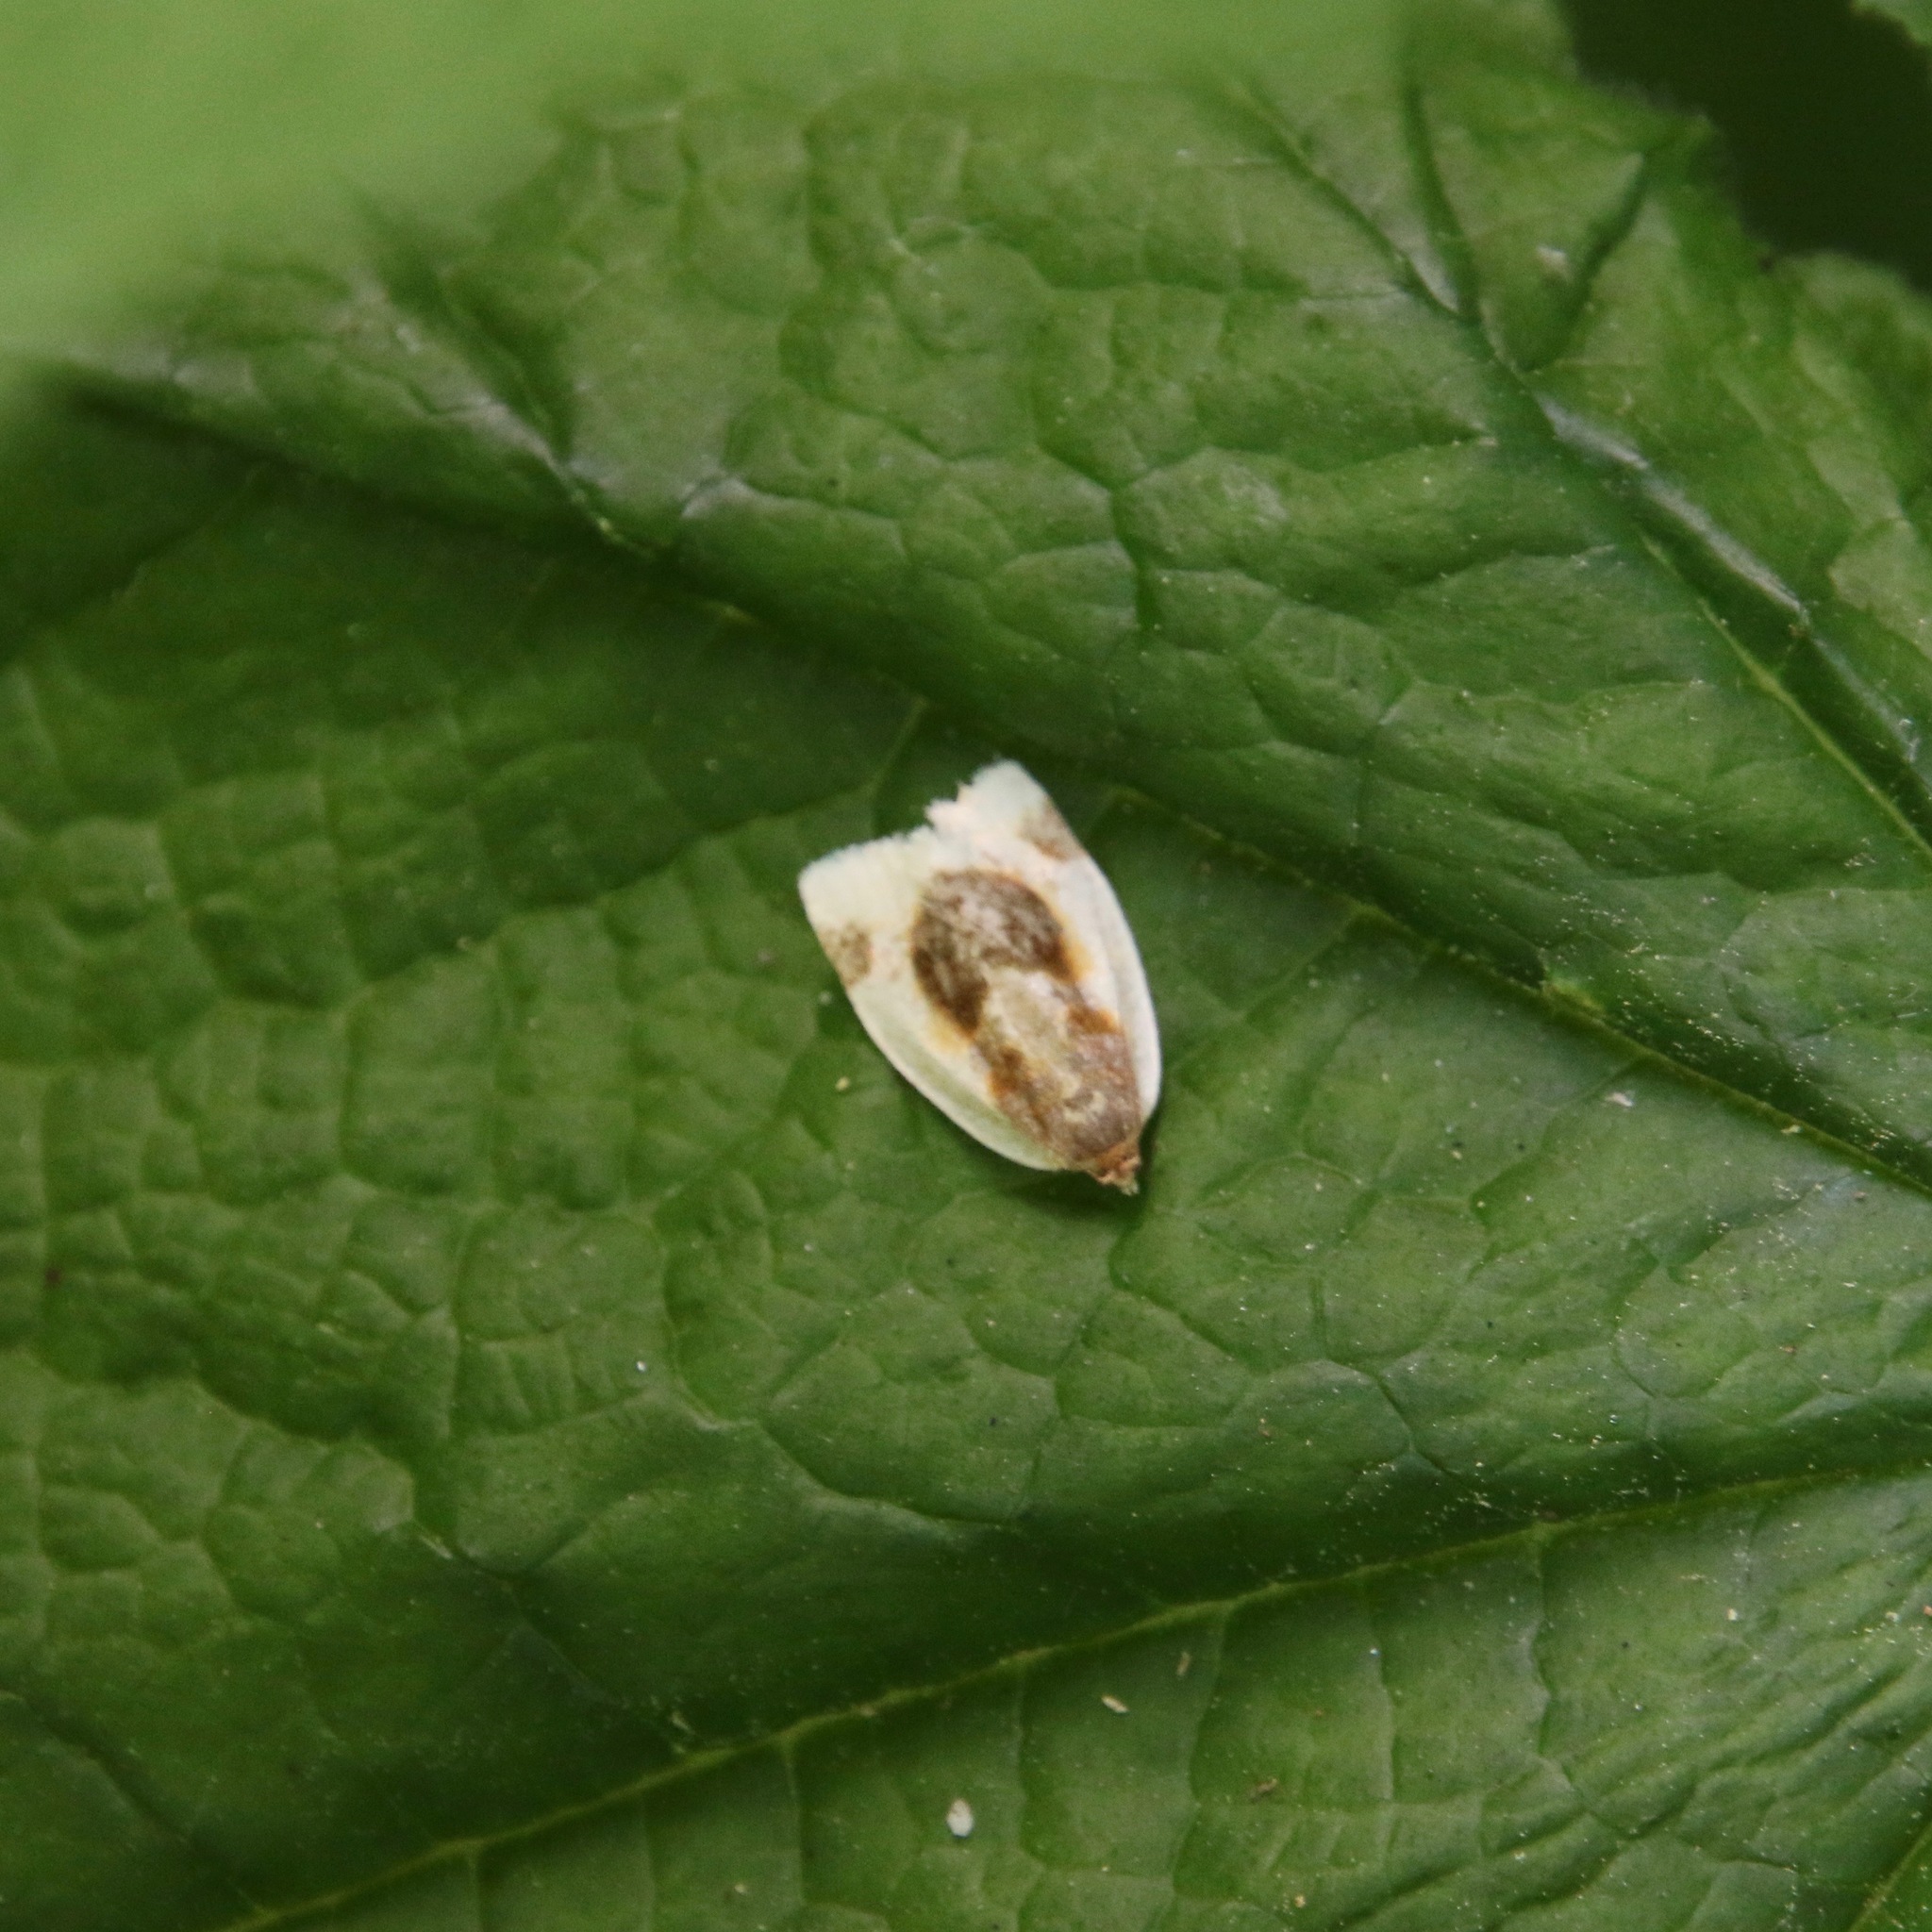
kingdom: Animalia
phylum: Arthropoda
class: Insecta
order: Lepidoptera
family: Tortricidae
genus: Clepsis
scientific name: Clepsis melaleucanus
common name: American apple tortrix
